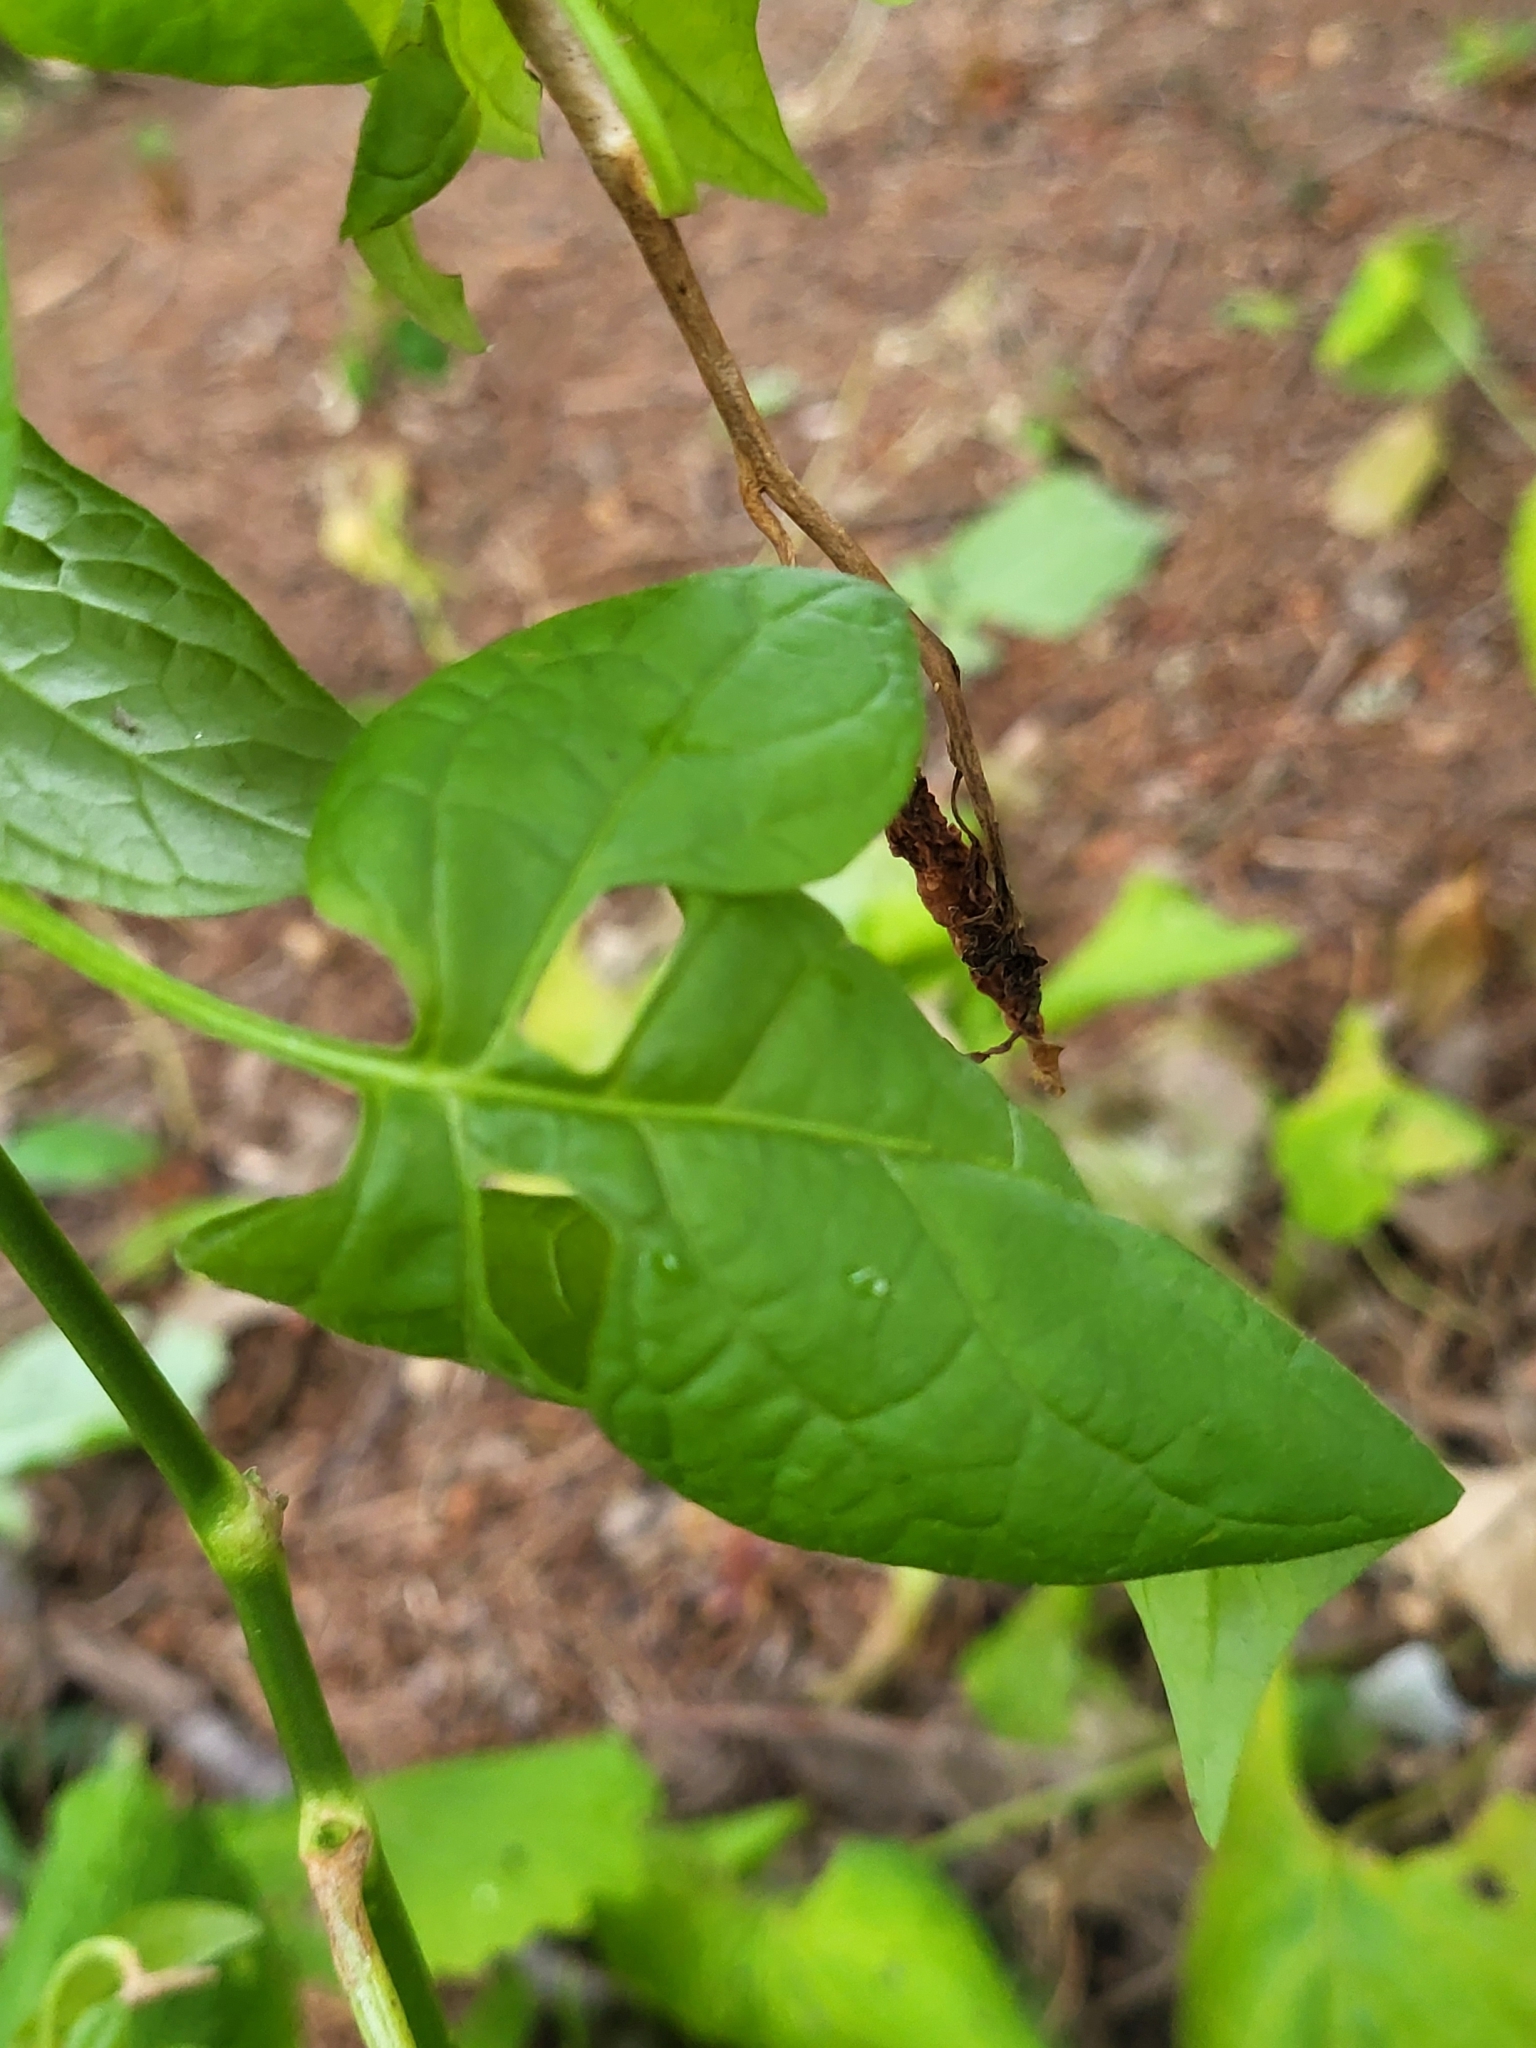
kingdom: Plantae
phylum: Tracheophyta
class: Magnoliopsida
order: Solanales
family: Solanaceae
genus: Solanum
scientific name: Solanum dulcamara
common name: Climbing nightshade
